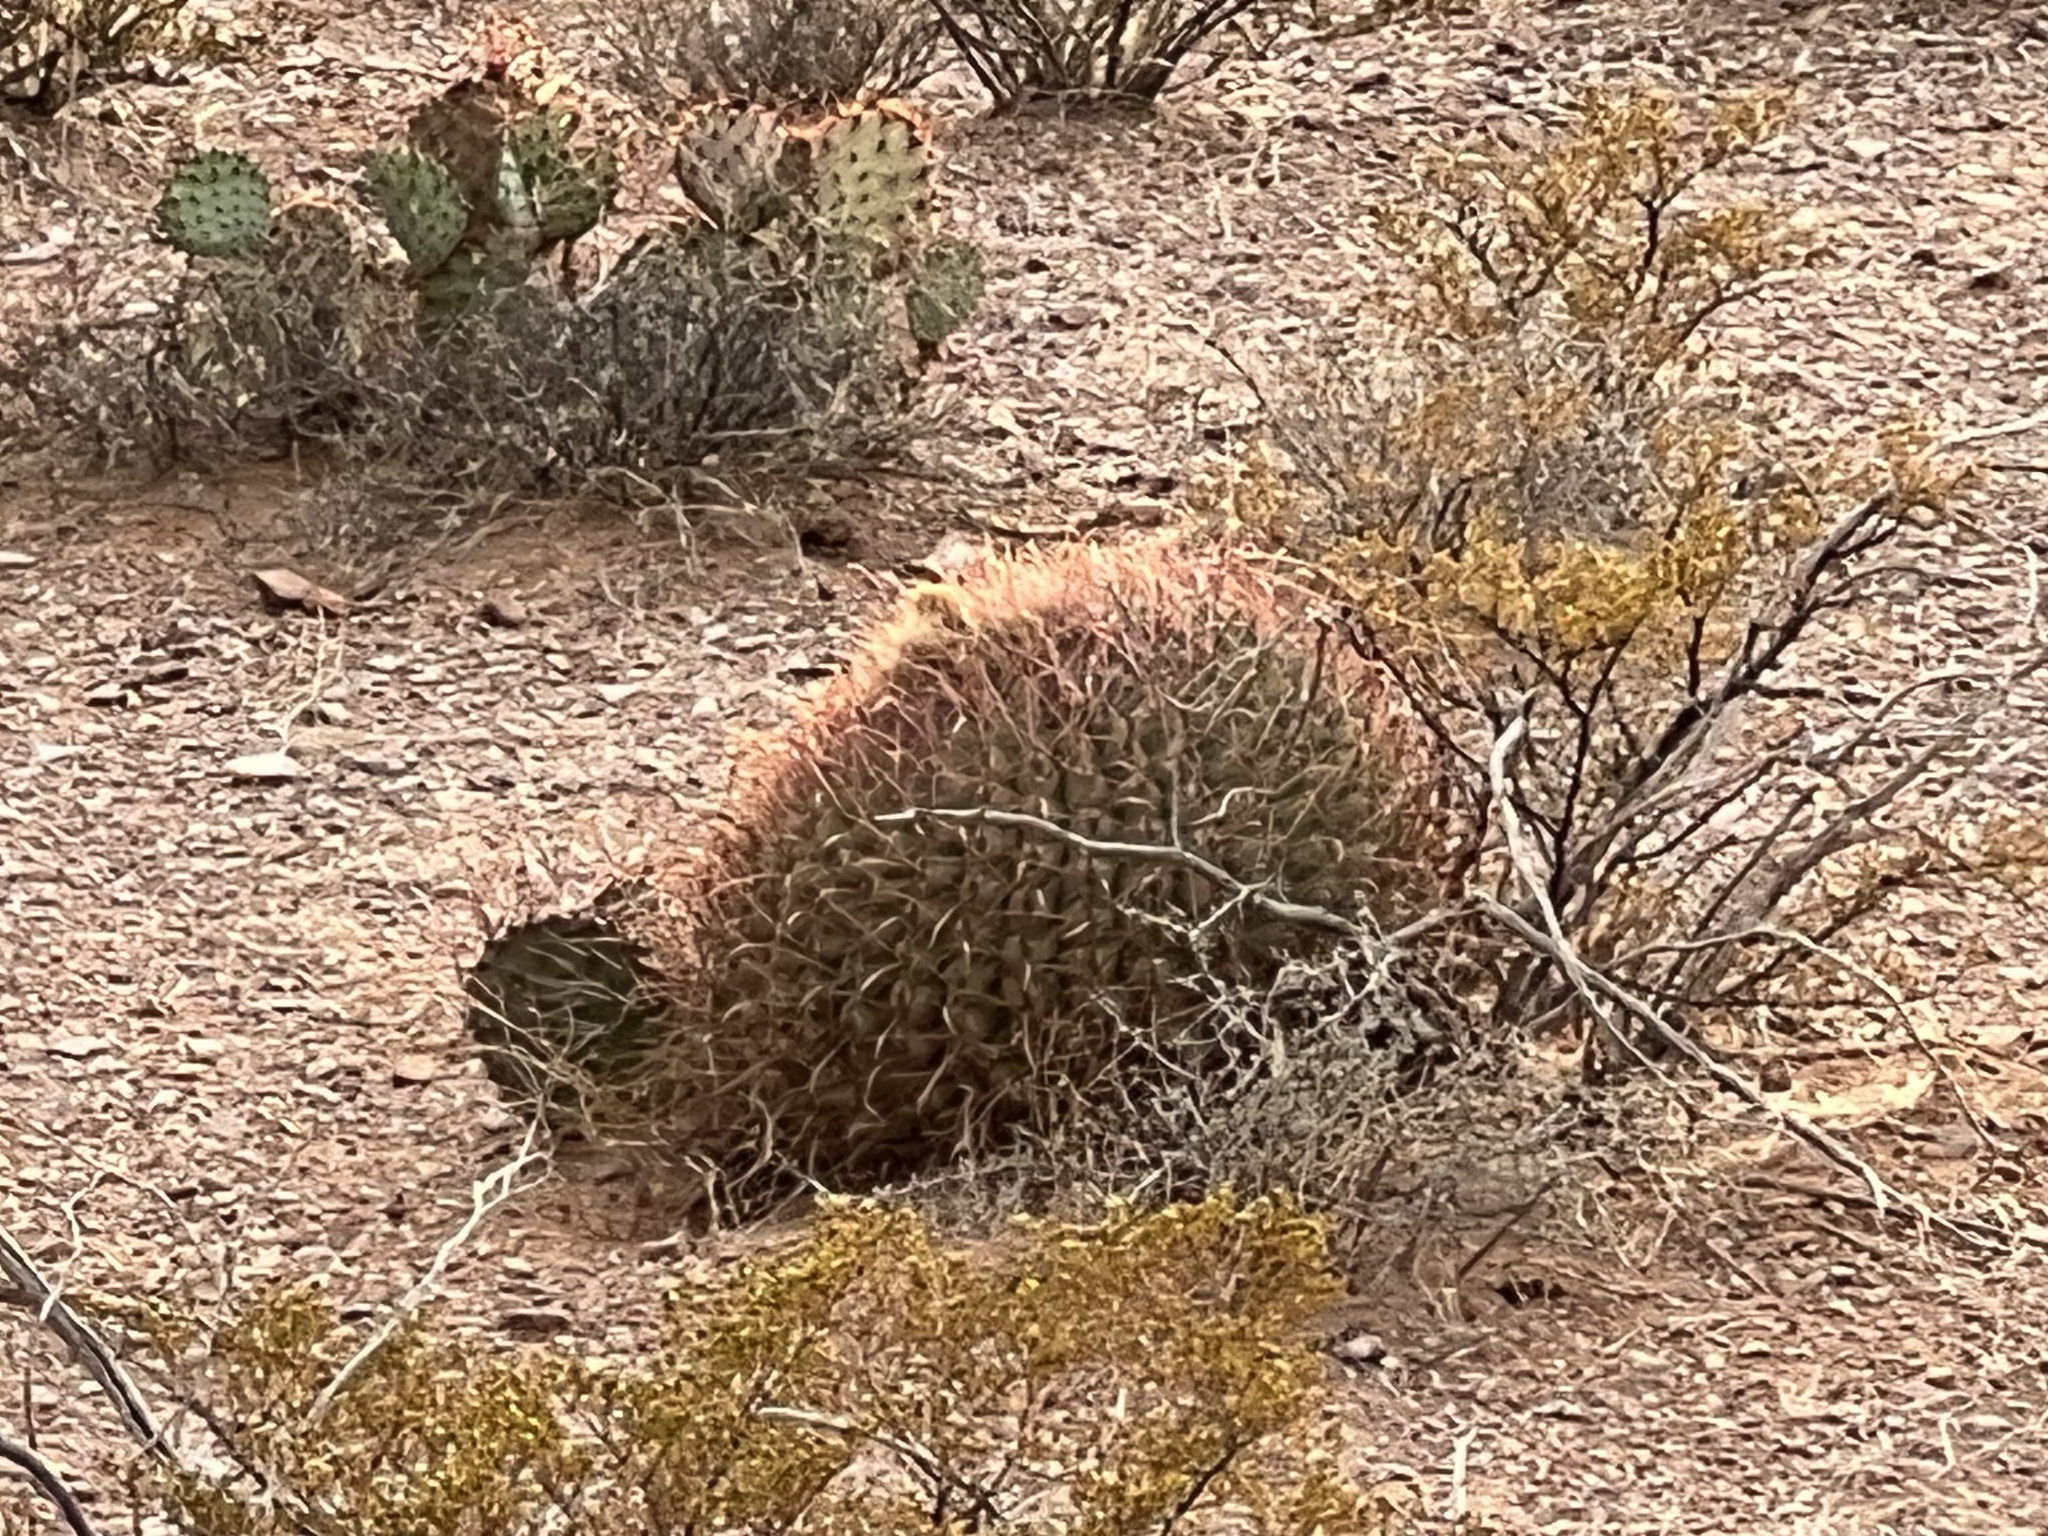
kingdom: Plantae
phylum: Tracheophyta
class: Magnoliopsida
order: Caryophyllales
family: Cactaceae
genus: Ferocactus
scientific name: Ferocactus wislizeni
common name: Candy barrel cactus
